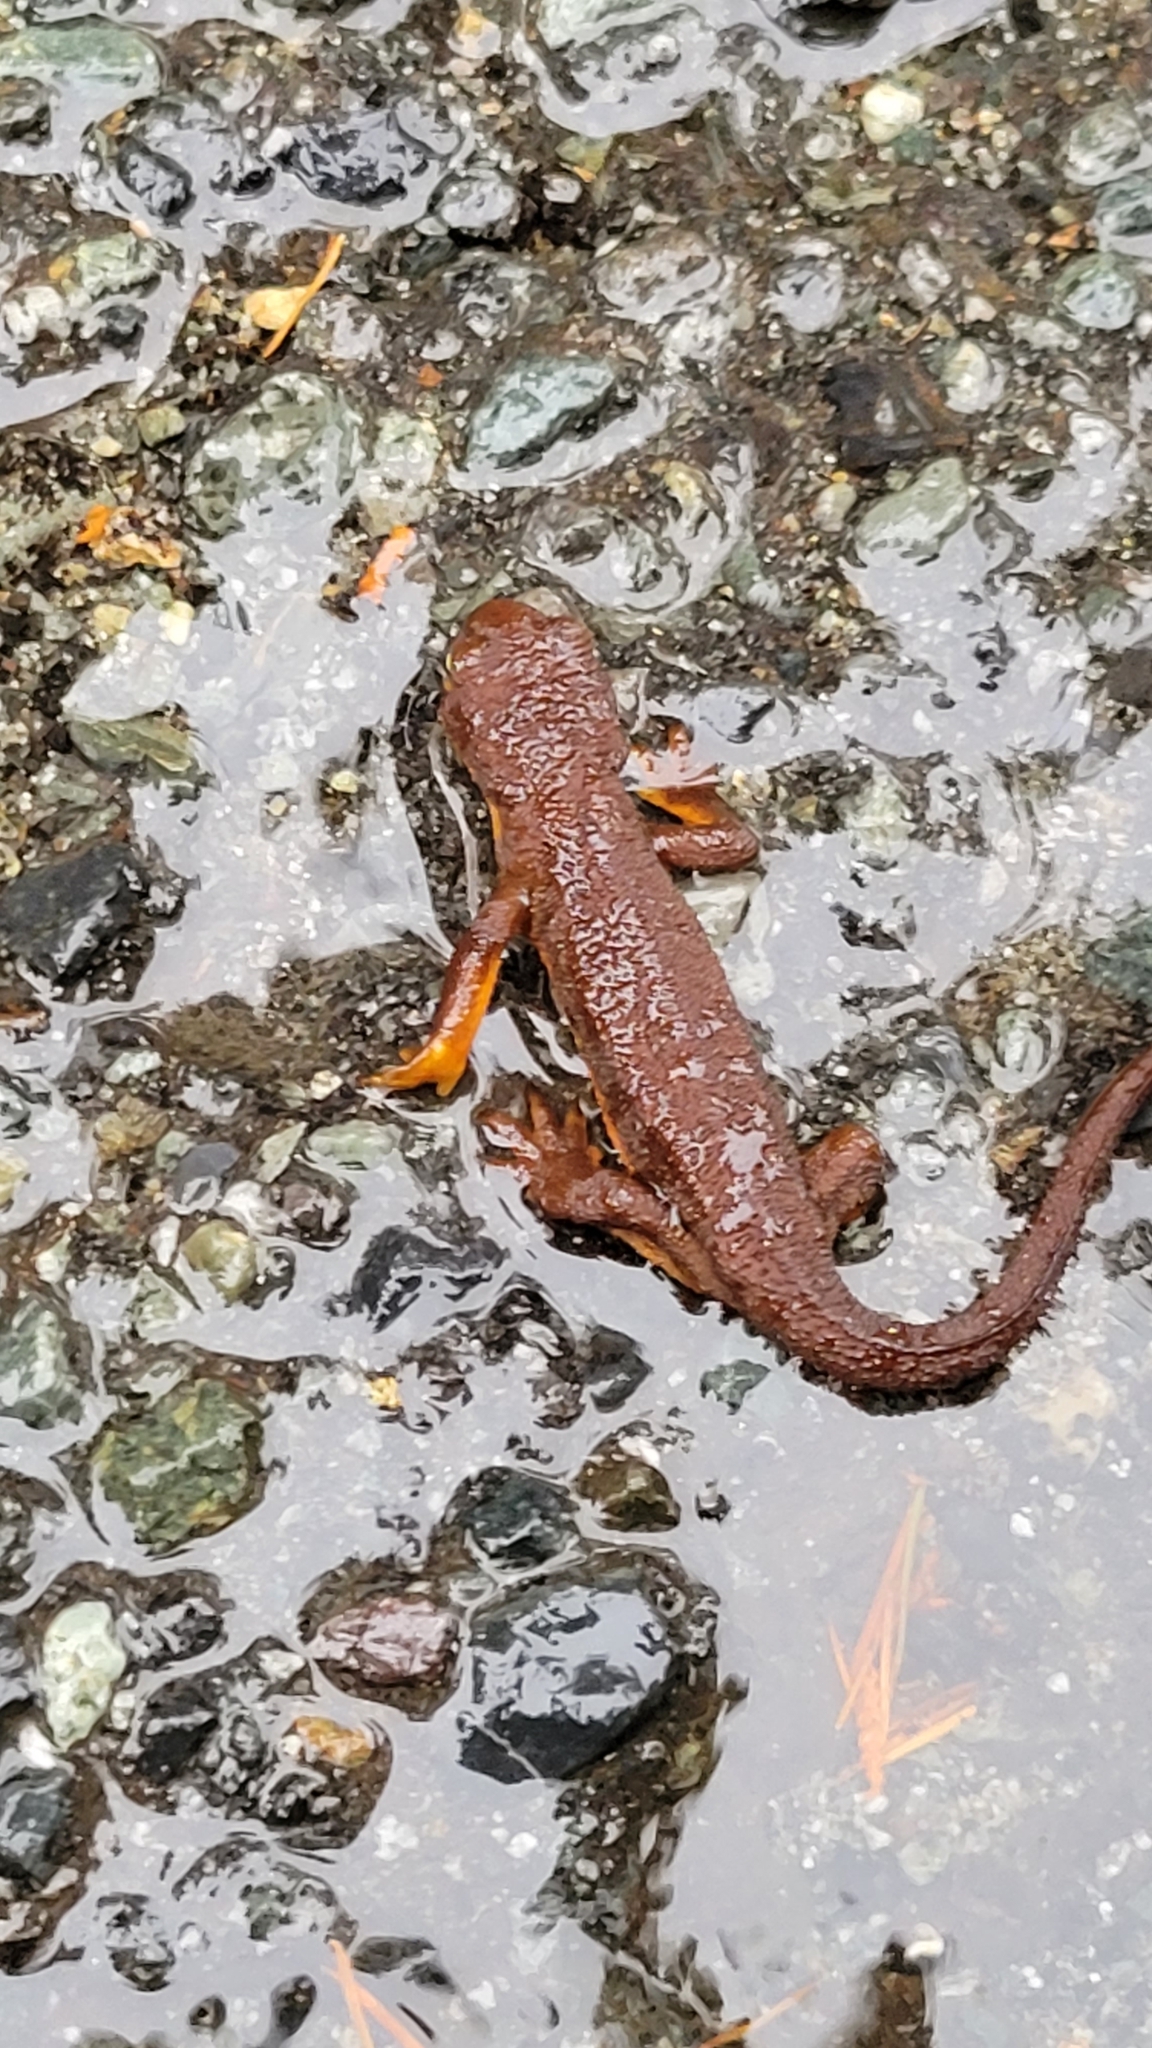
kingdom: Animalia
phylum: Chordata
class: Amphibia
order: Caudata
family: Salamandridae
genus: Taricha
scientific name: Taricha granulosa
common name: Roughskin newt
